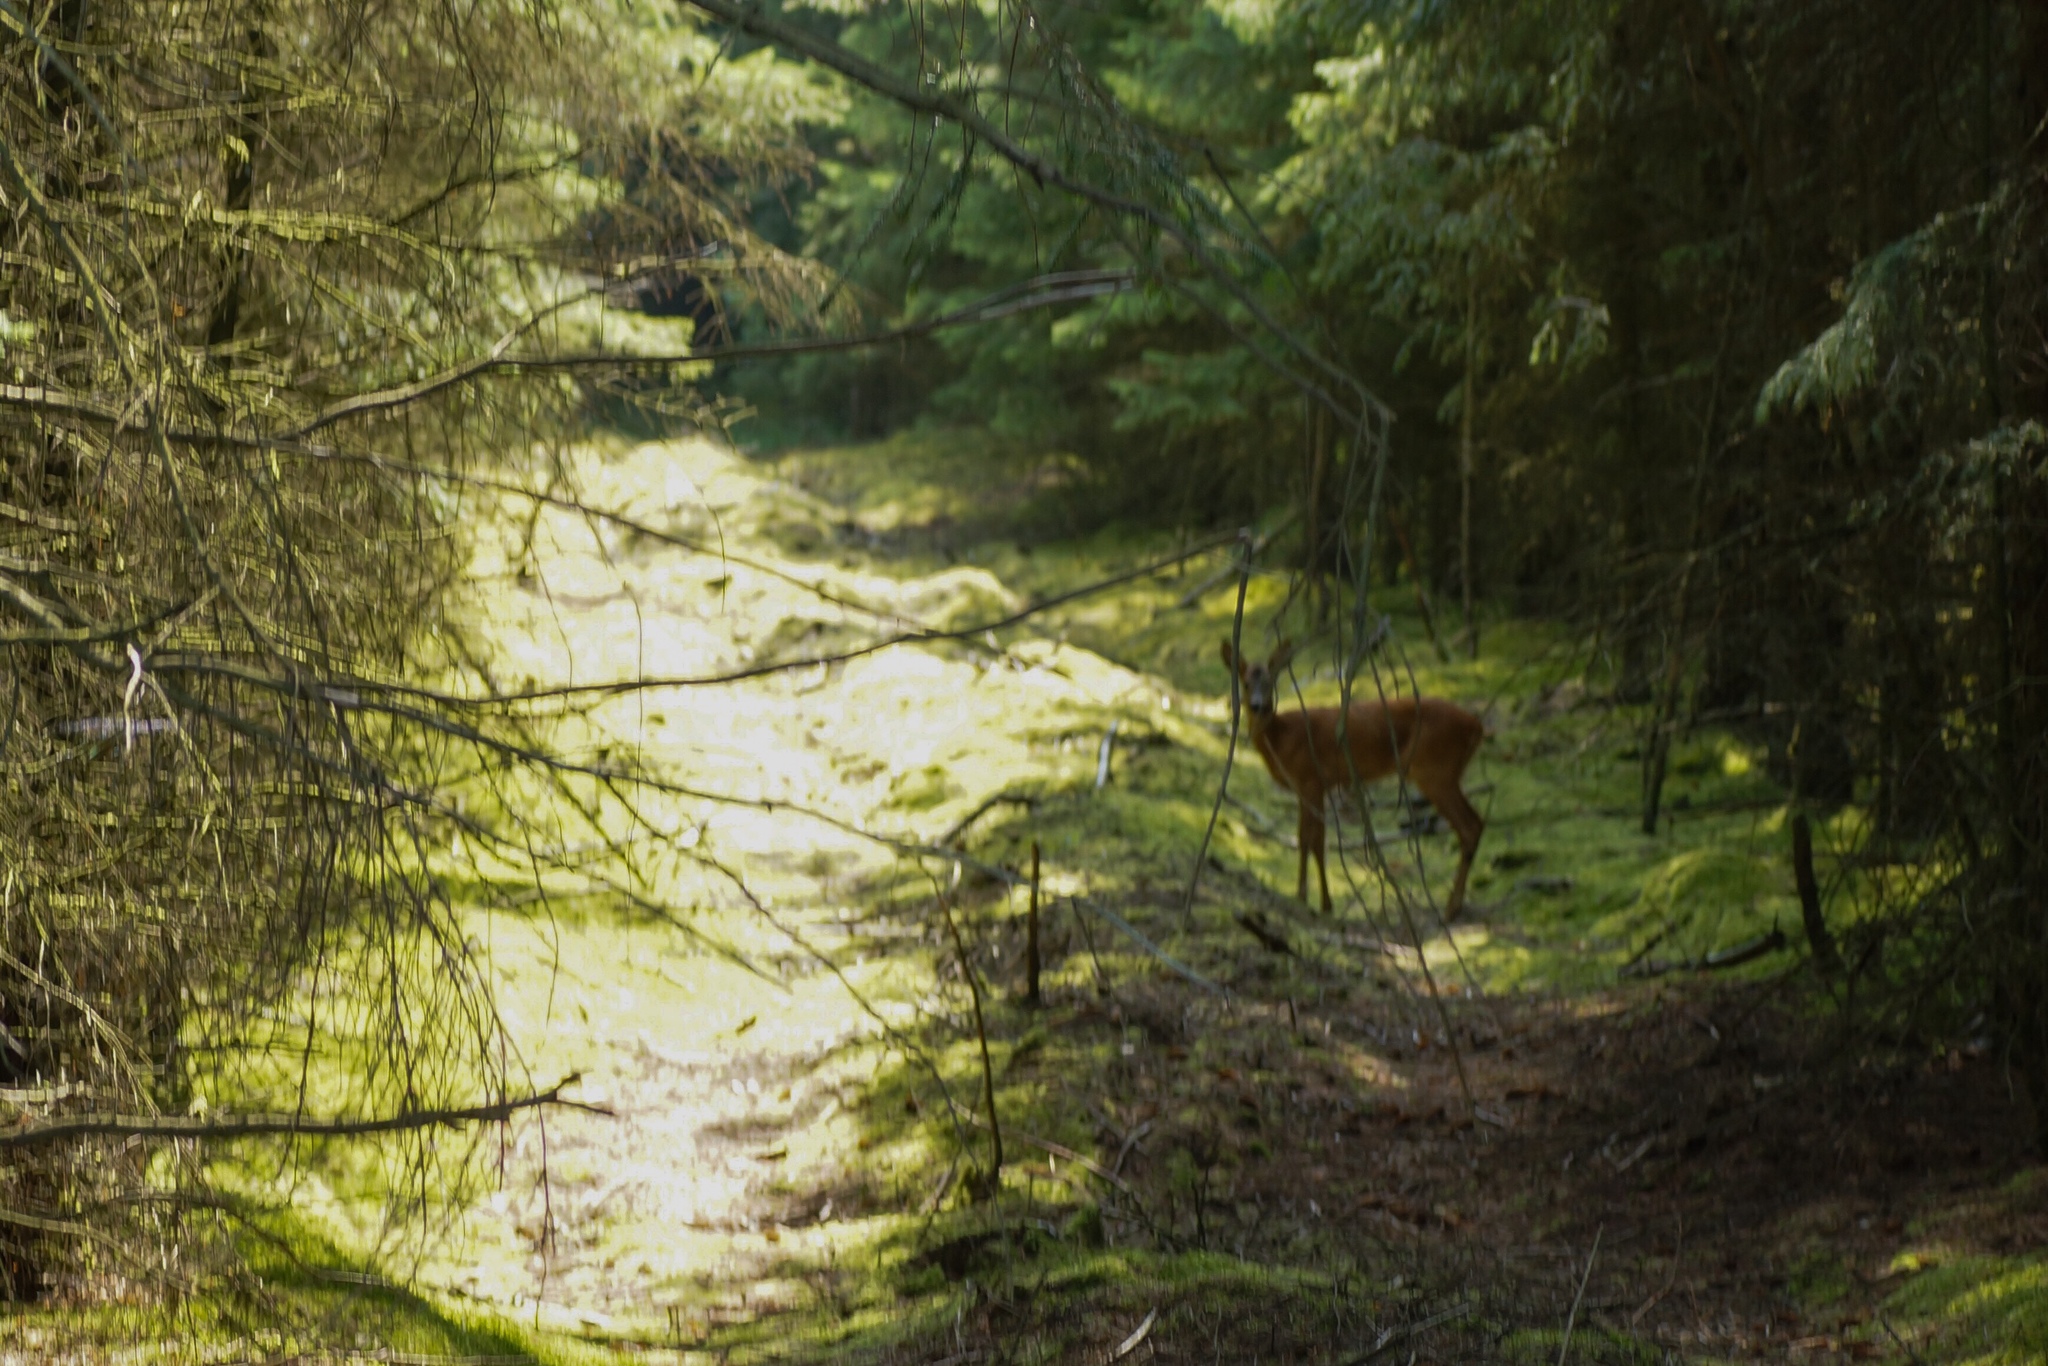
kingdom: Animalia
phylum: Chordata
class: Mammalia
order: Artiodactyla
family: Cervidae
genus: Capreolus
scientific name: Capreolus capreolus
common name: Western roe deer
